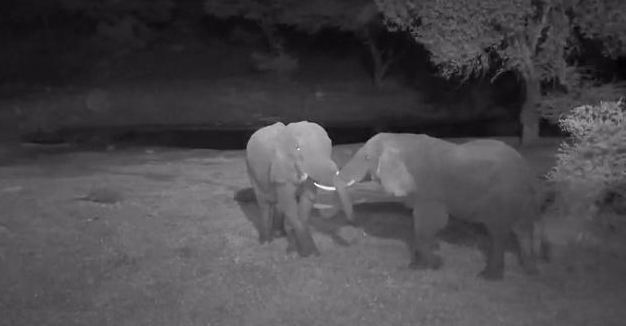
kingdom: Animalia
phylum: Chordata
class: Mammalia
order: Proboscidea
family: Elephantidae
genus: Loxodonta
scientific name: Loxodonta africana
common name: African elephant
